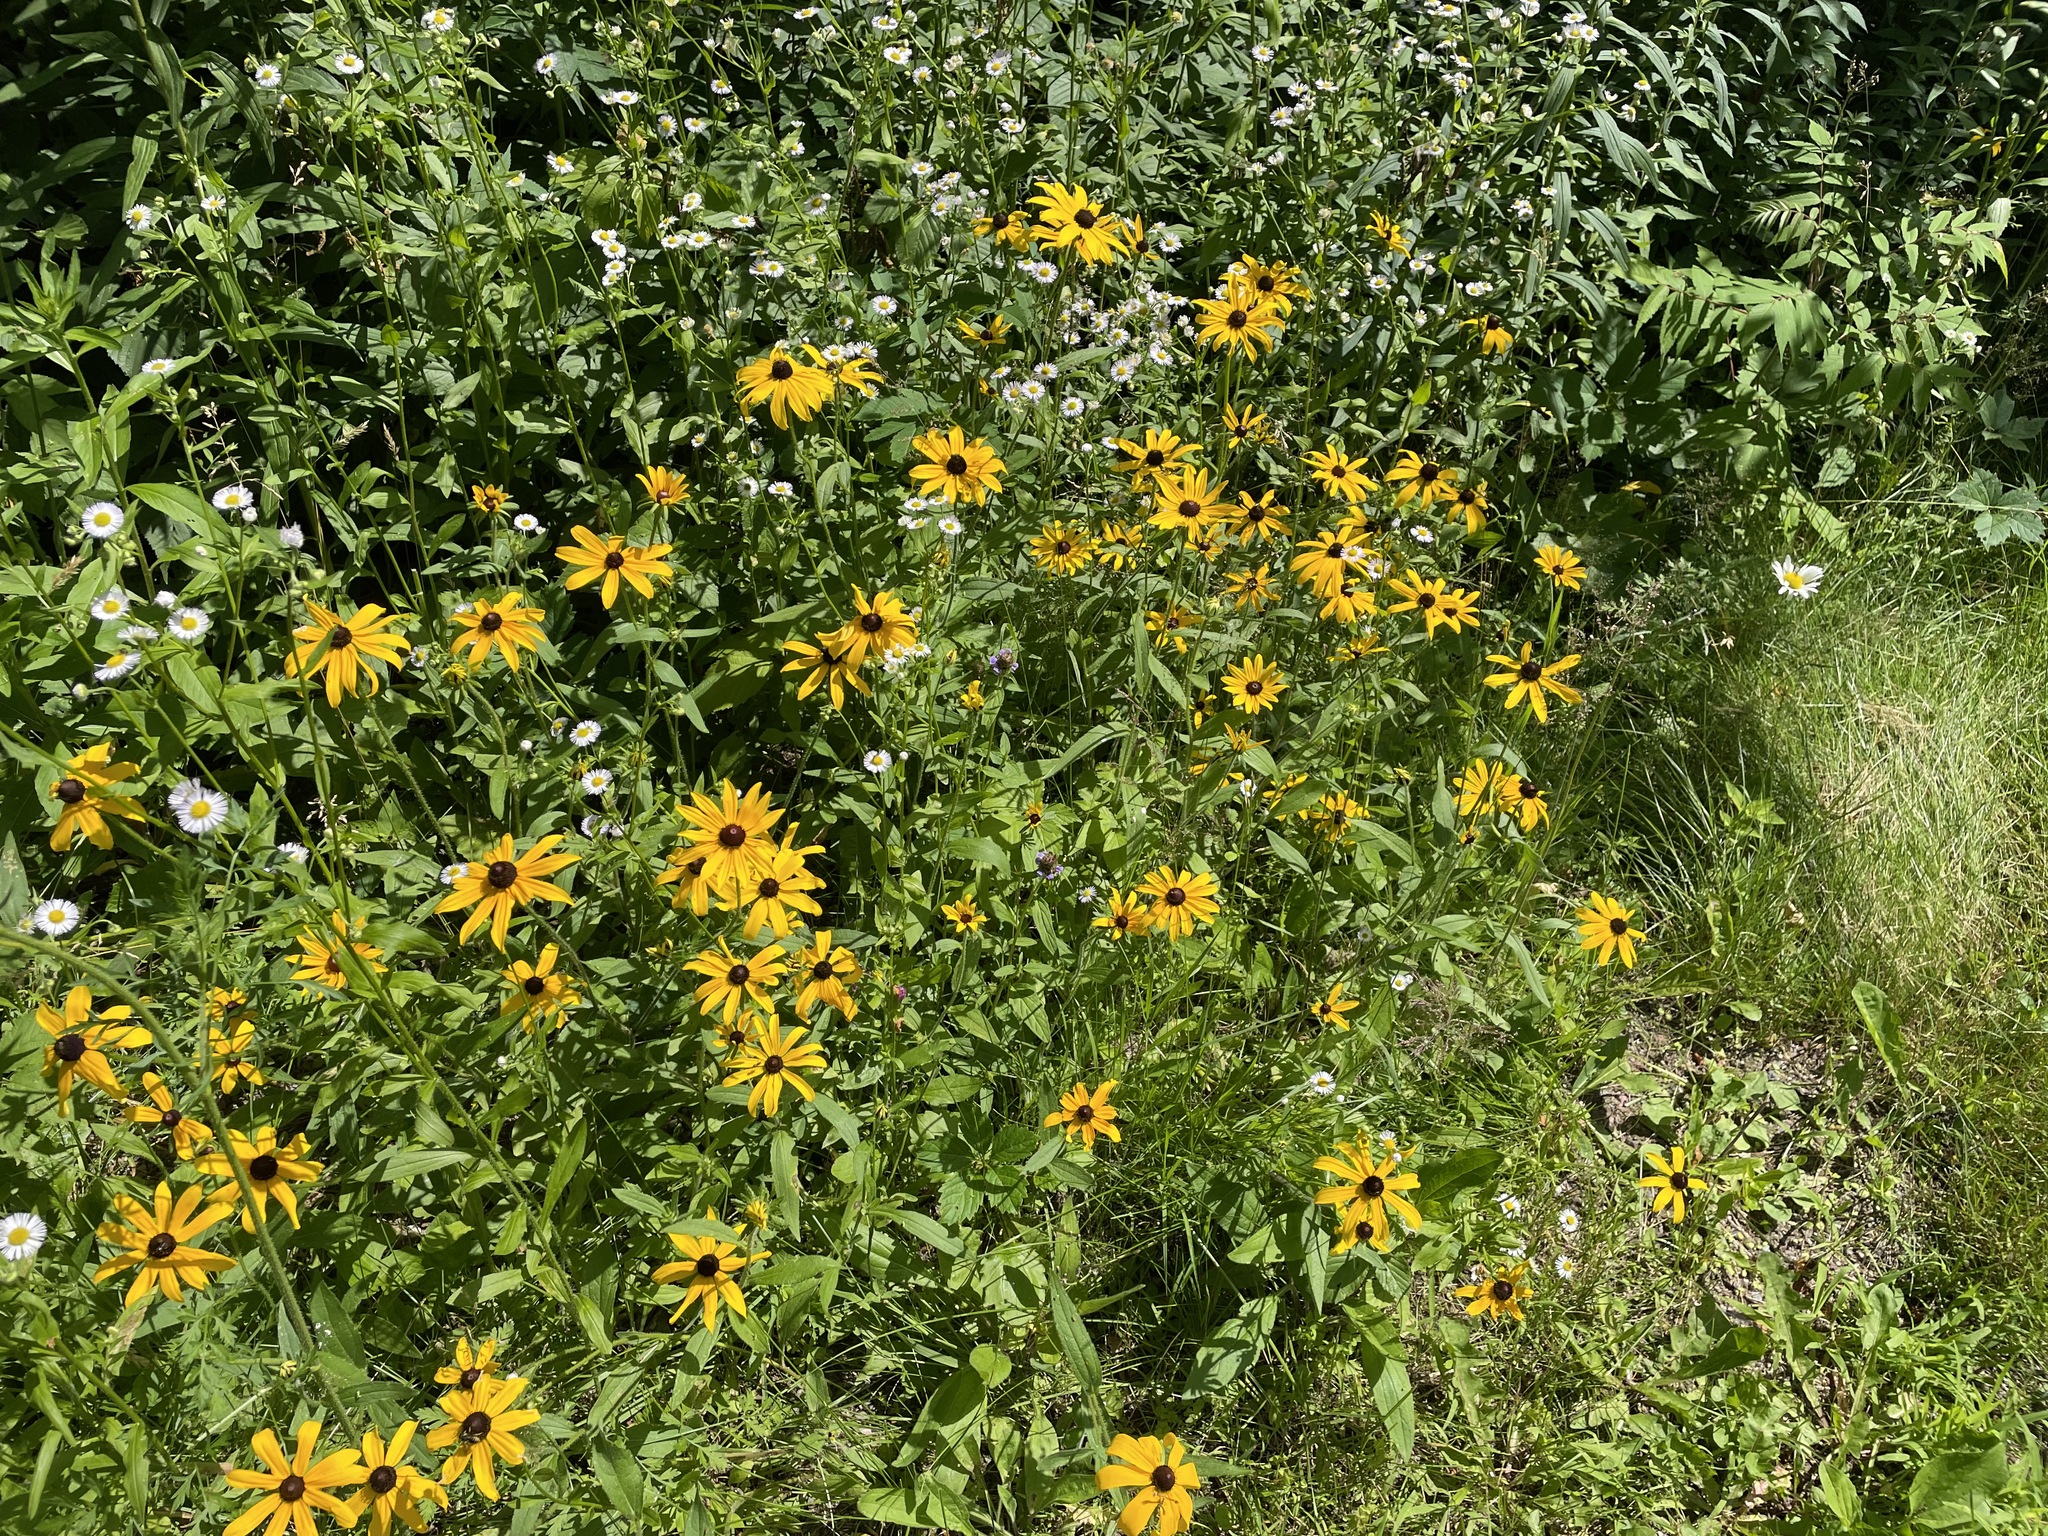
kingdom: Plantae
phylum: Tracheophyta
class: Magnoliopsida
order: Asterales
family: Asteraceae
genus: Rudbeckia
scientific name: Rudbeckia hirta
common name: Black-eyed-susan
